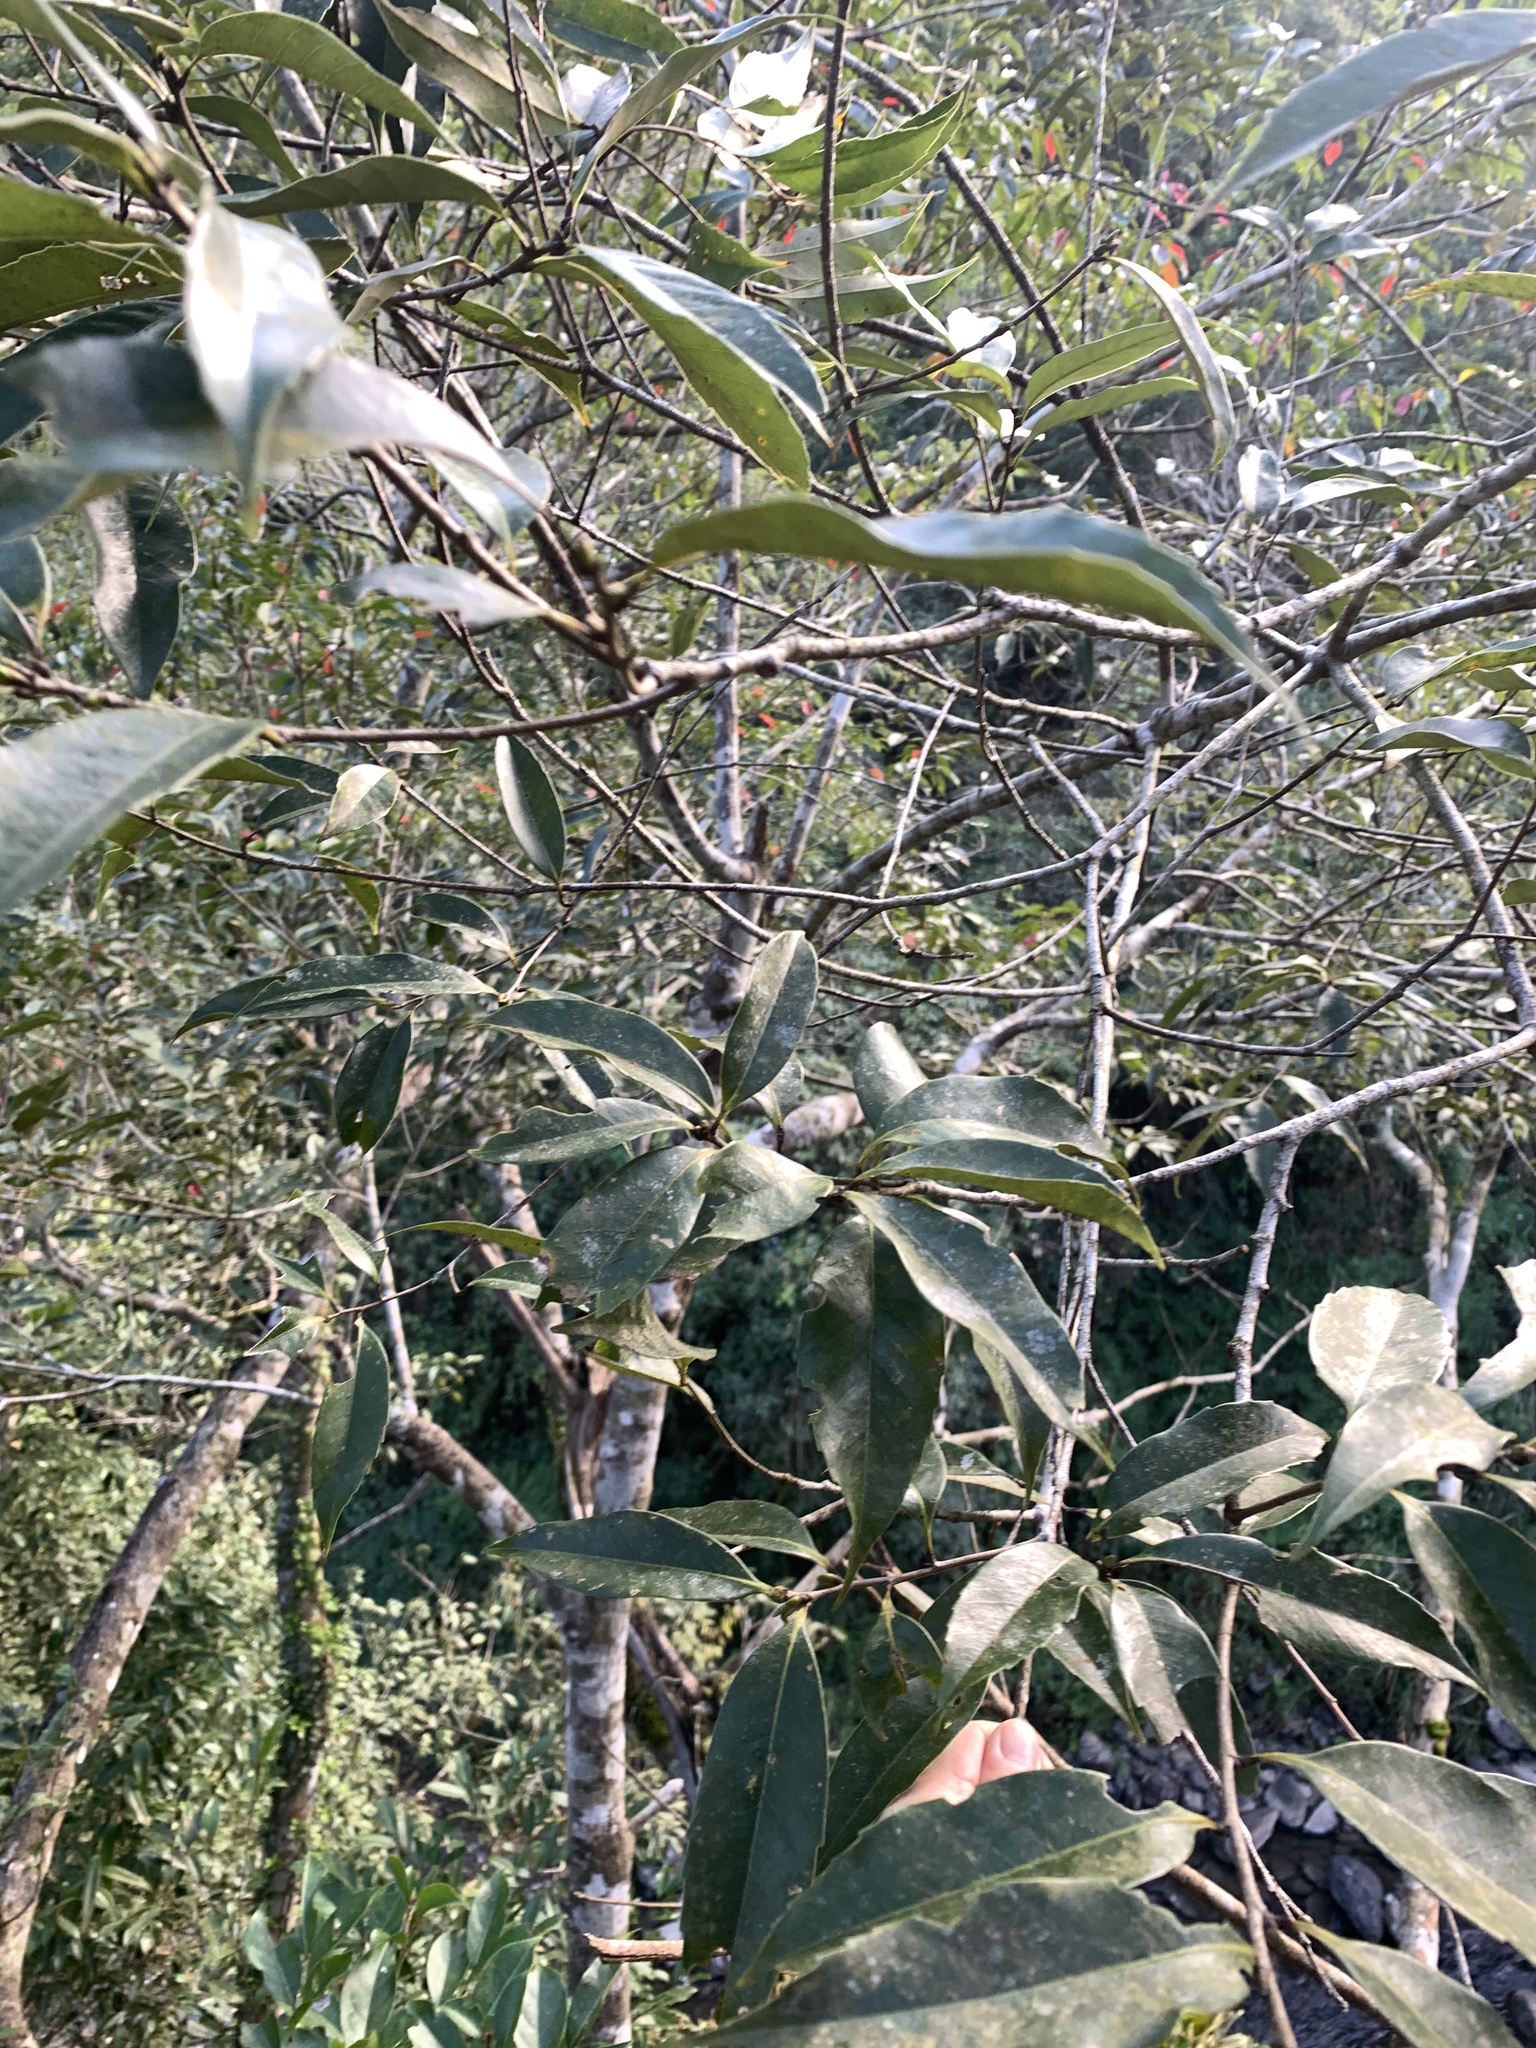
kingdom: Plantae
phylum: Tracheophyta
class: Magnoliopsida
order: Fagales
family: Fagaceae
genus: Castanopsis
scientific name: Castanopsis carlesii
